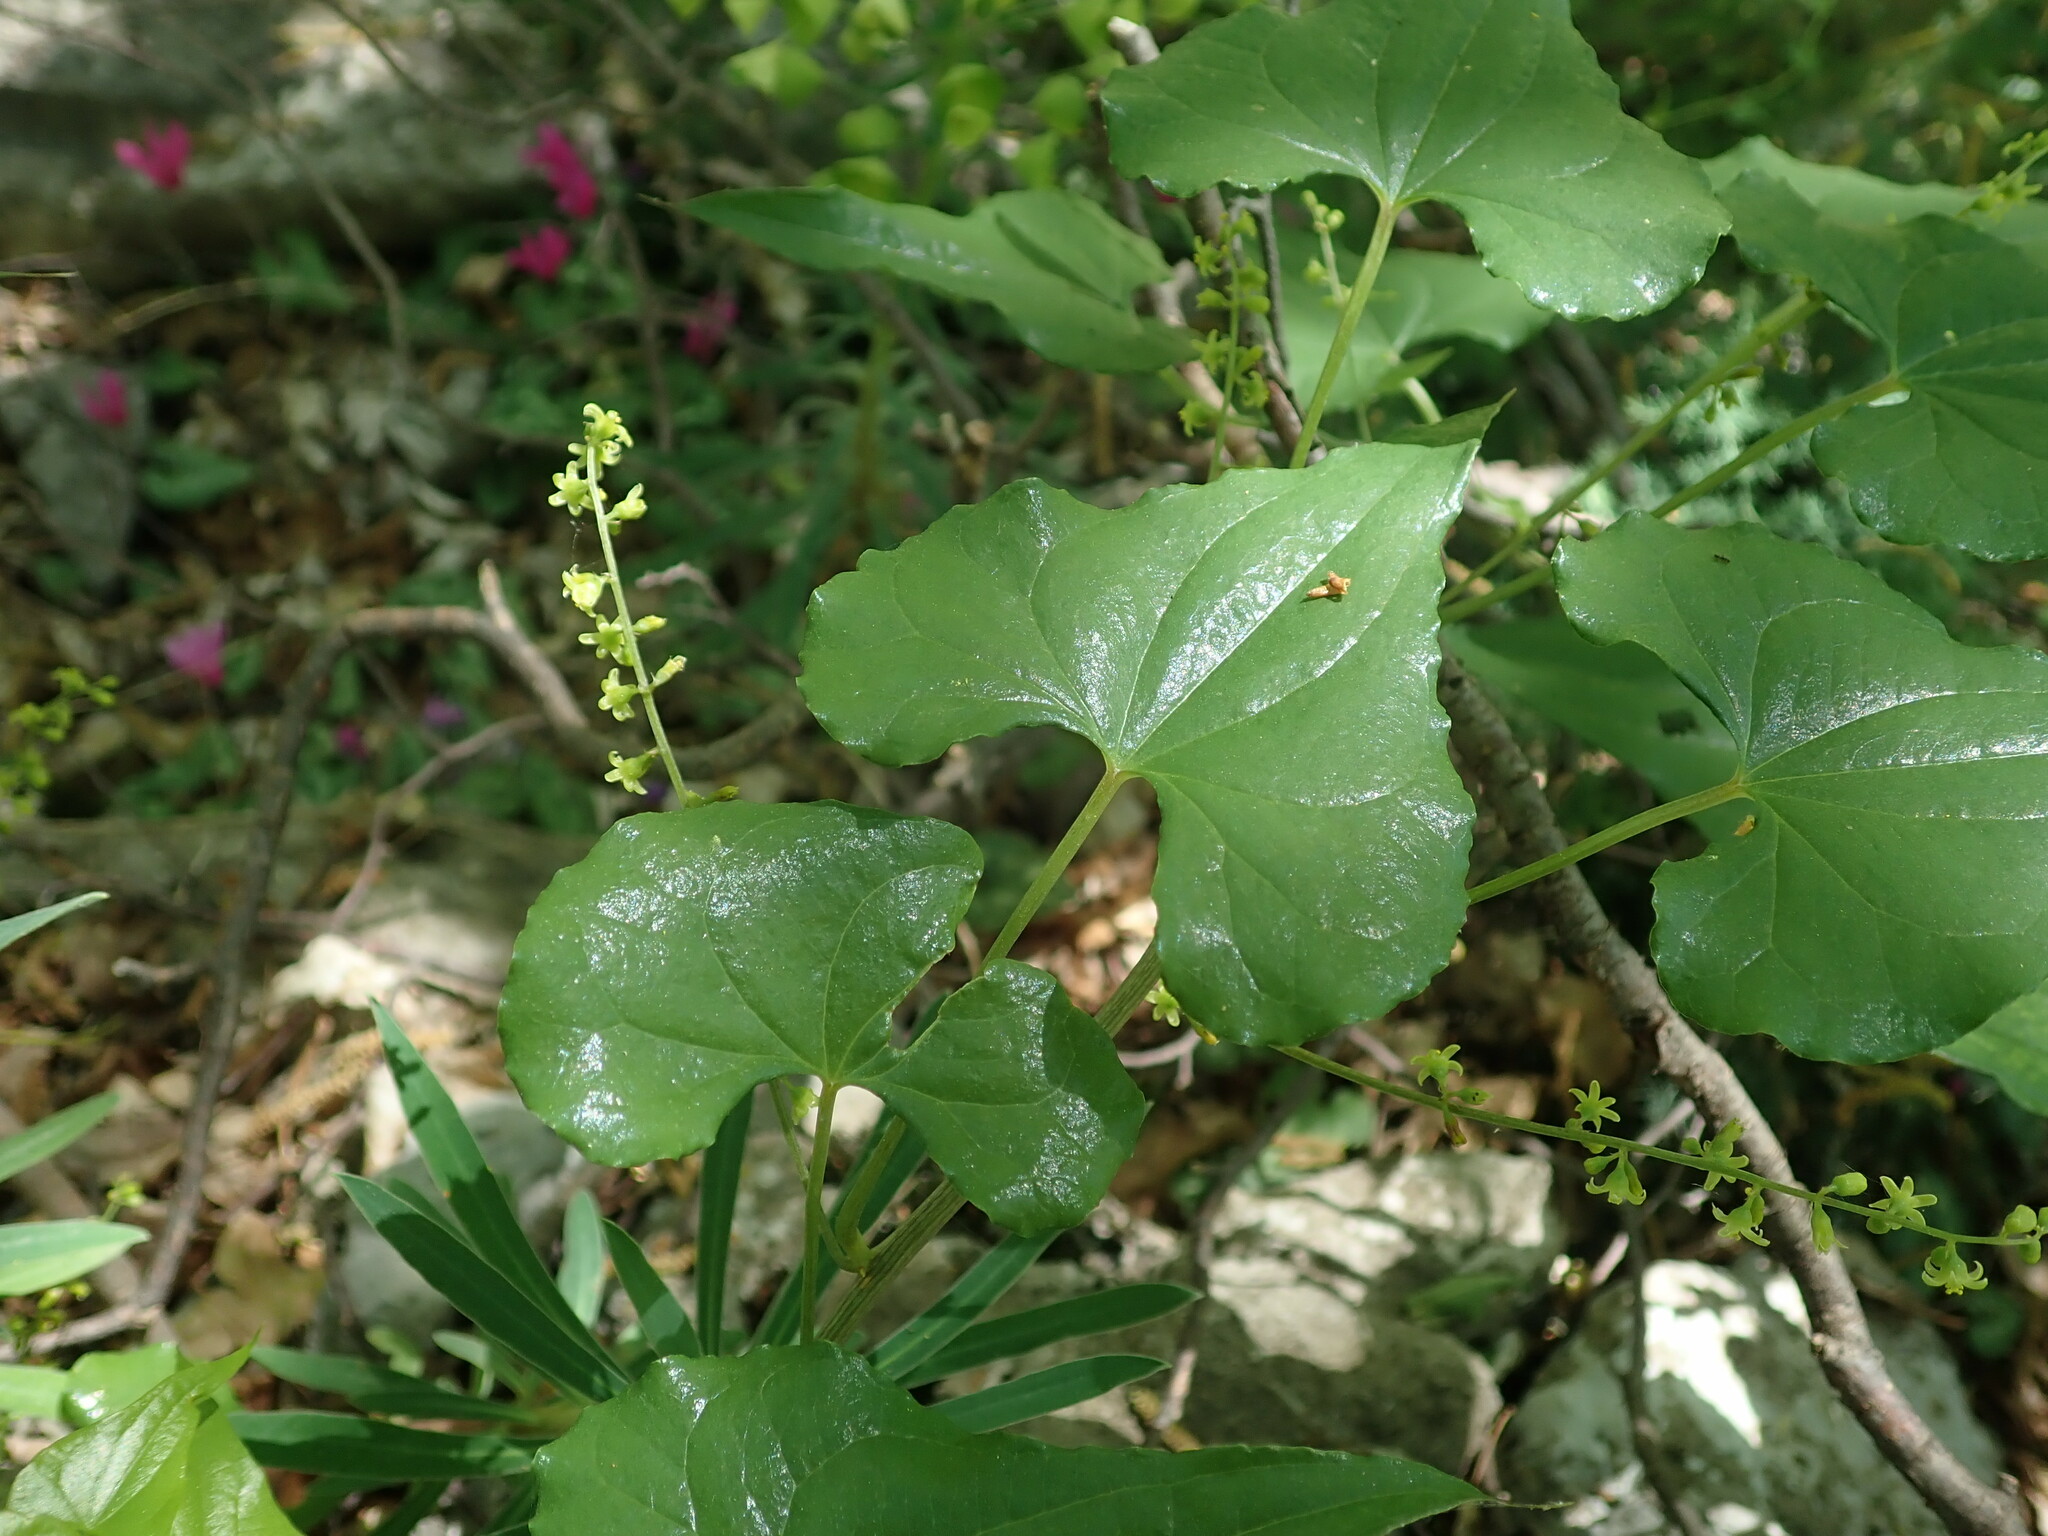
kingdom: Plantae
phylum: Tracheophyta
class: Liliopsida
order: Dioscoreales
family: Dioscoreaceae
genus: Dioscorea
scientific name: Dioscorea communis
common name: Black-bindweed
